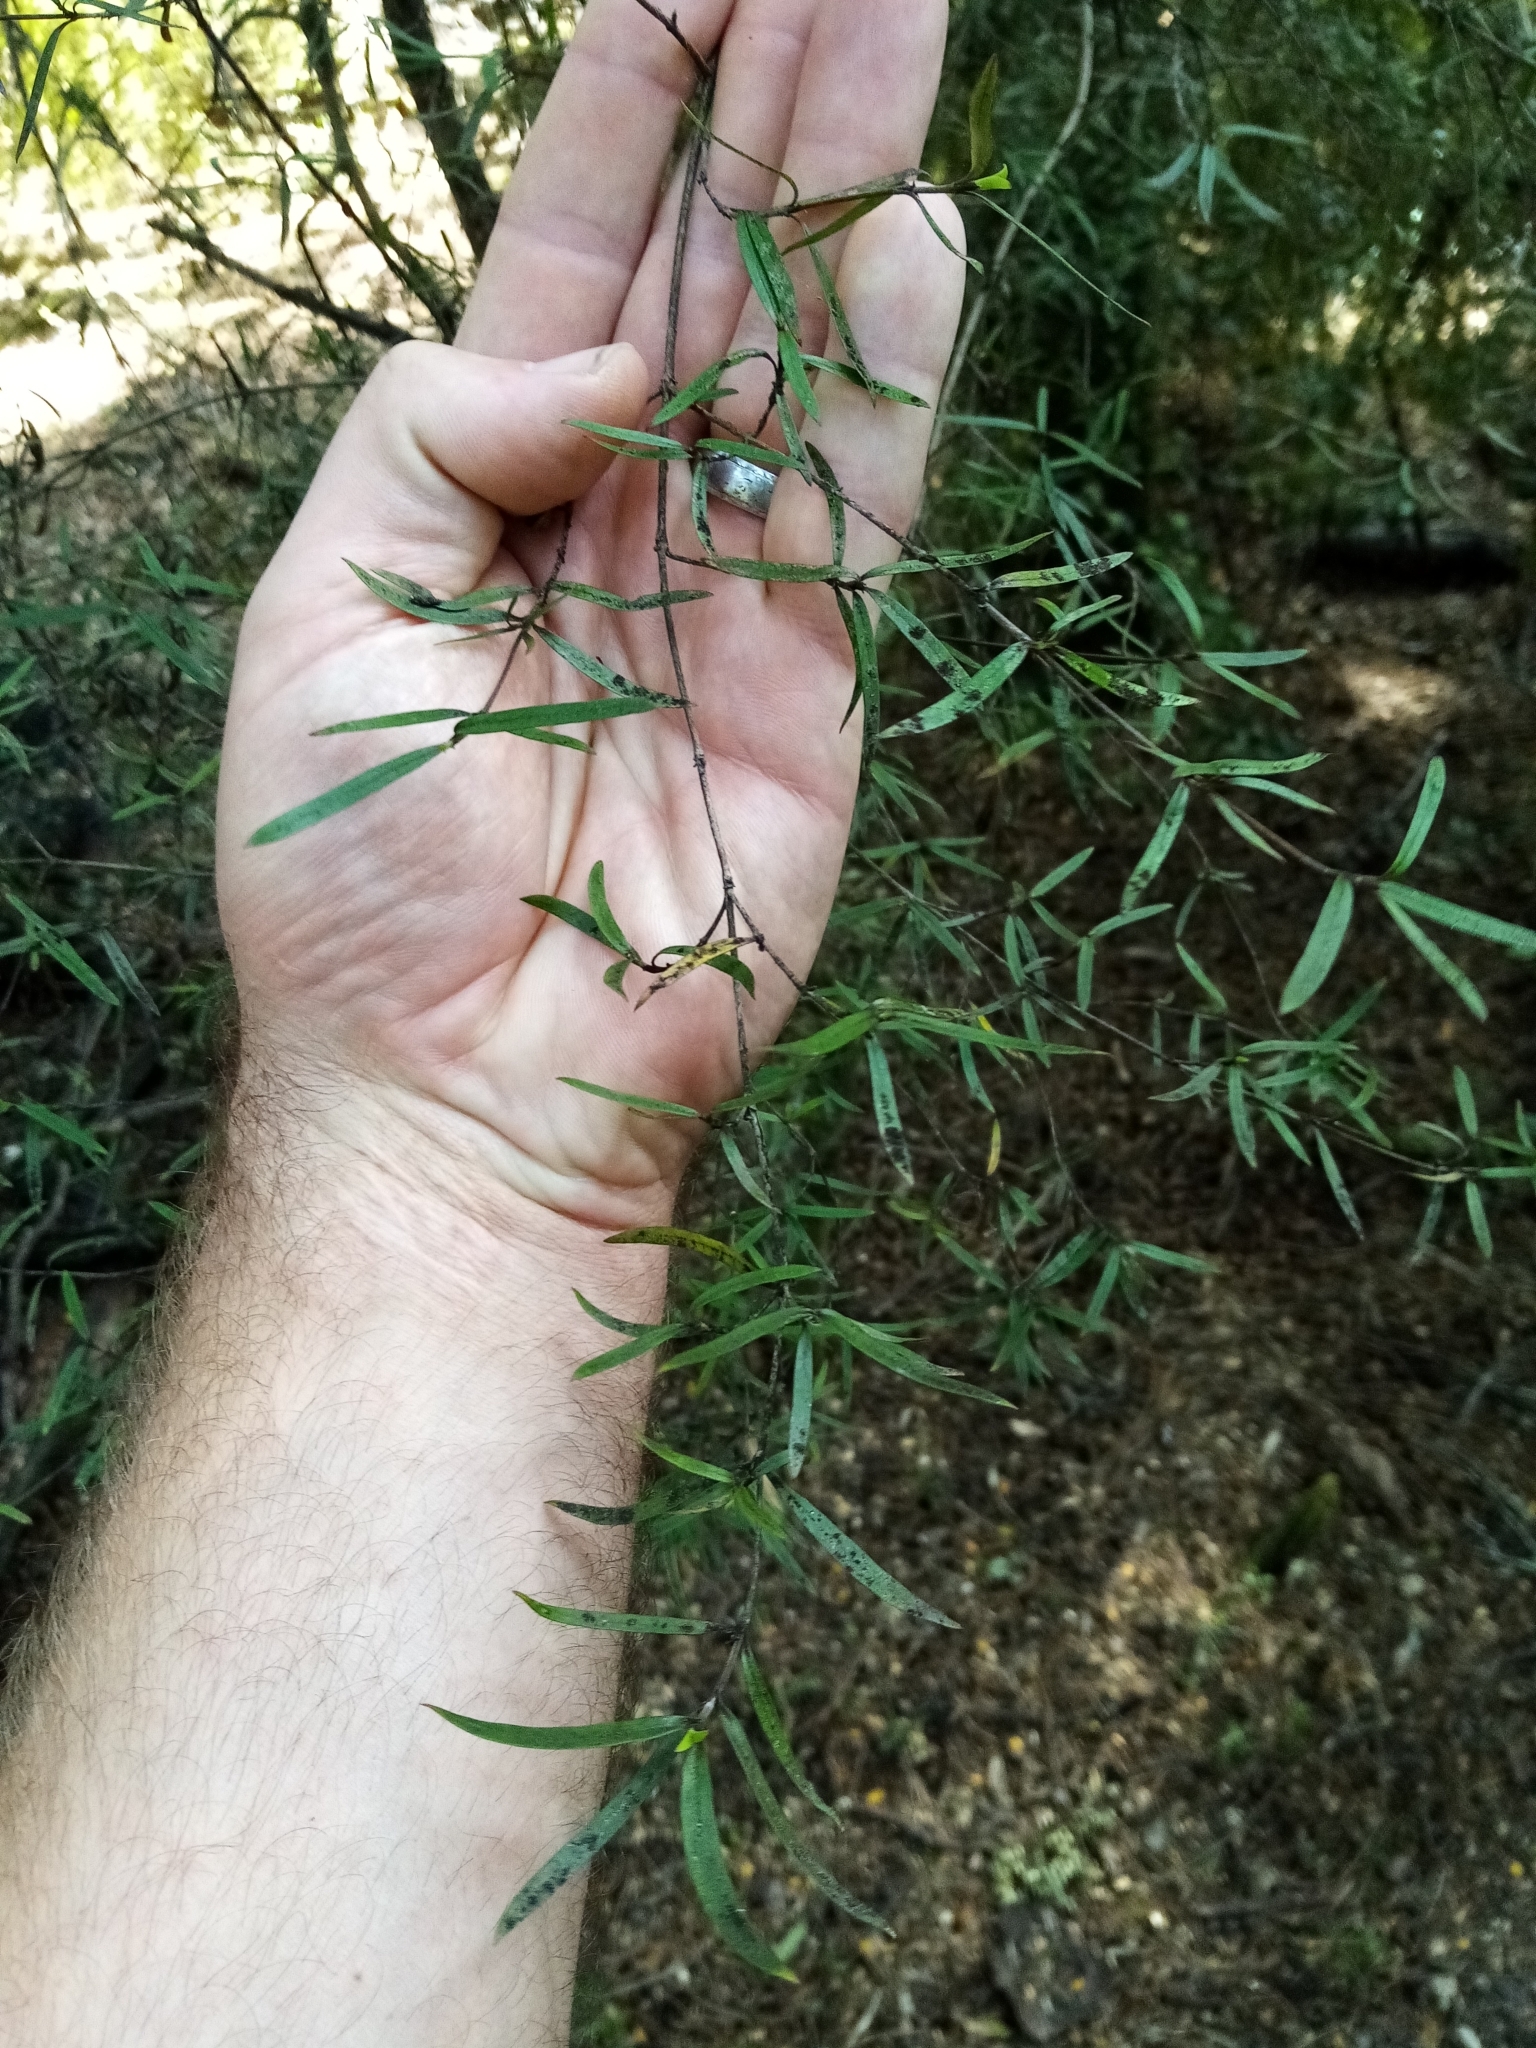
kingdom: Plantae
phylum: Tracheophyta
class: Magnoliopsida
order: Gentianales
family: Rubiaceae
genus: Coprosma
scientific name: Coprosma linariifolia
